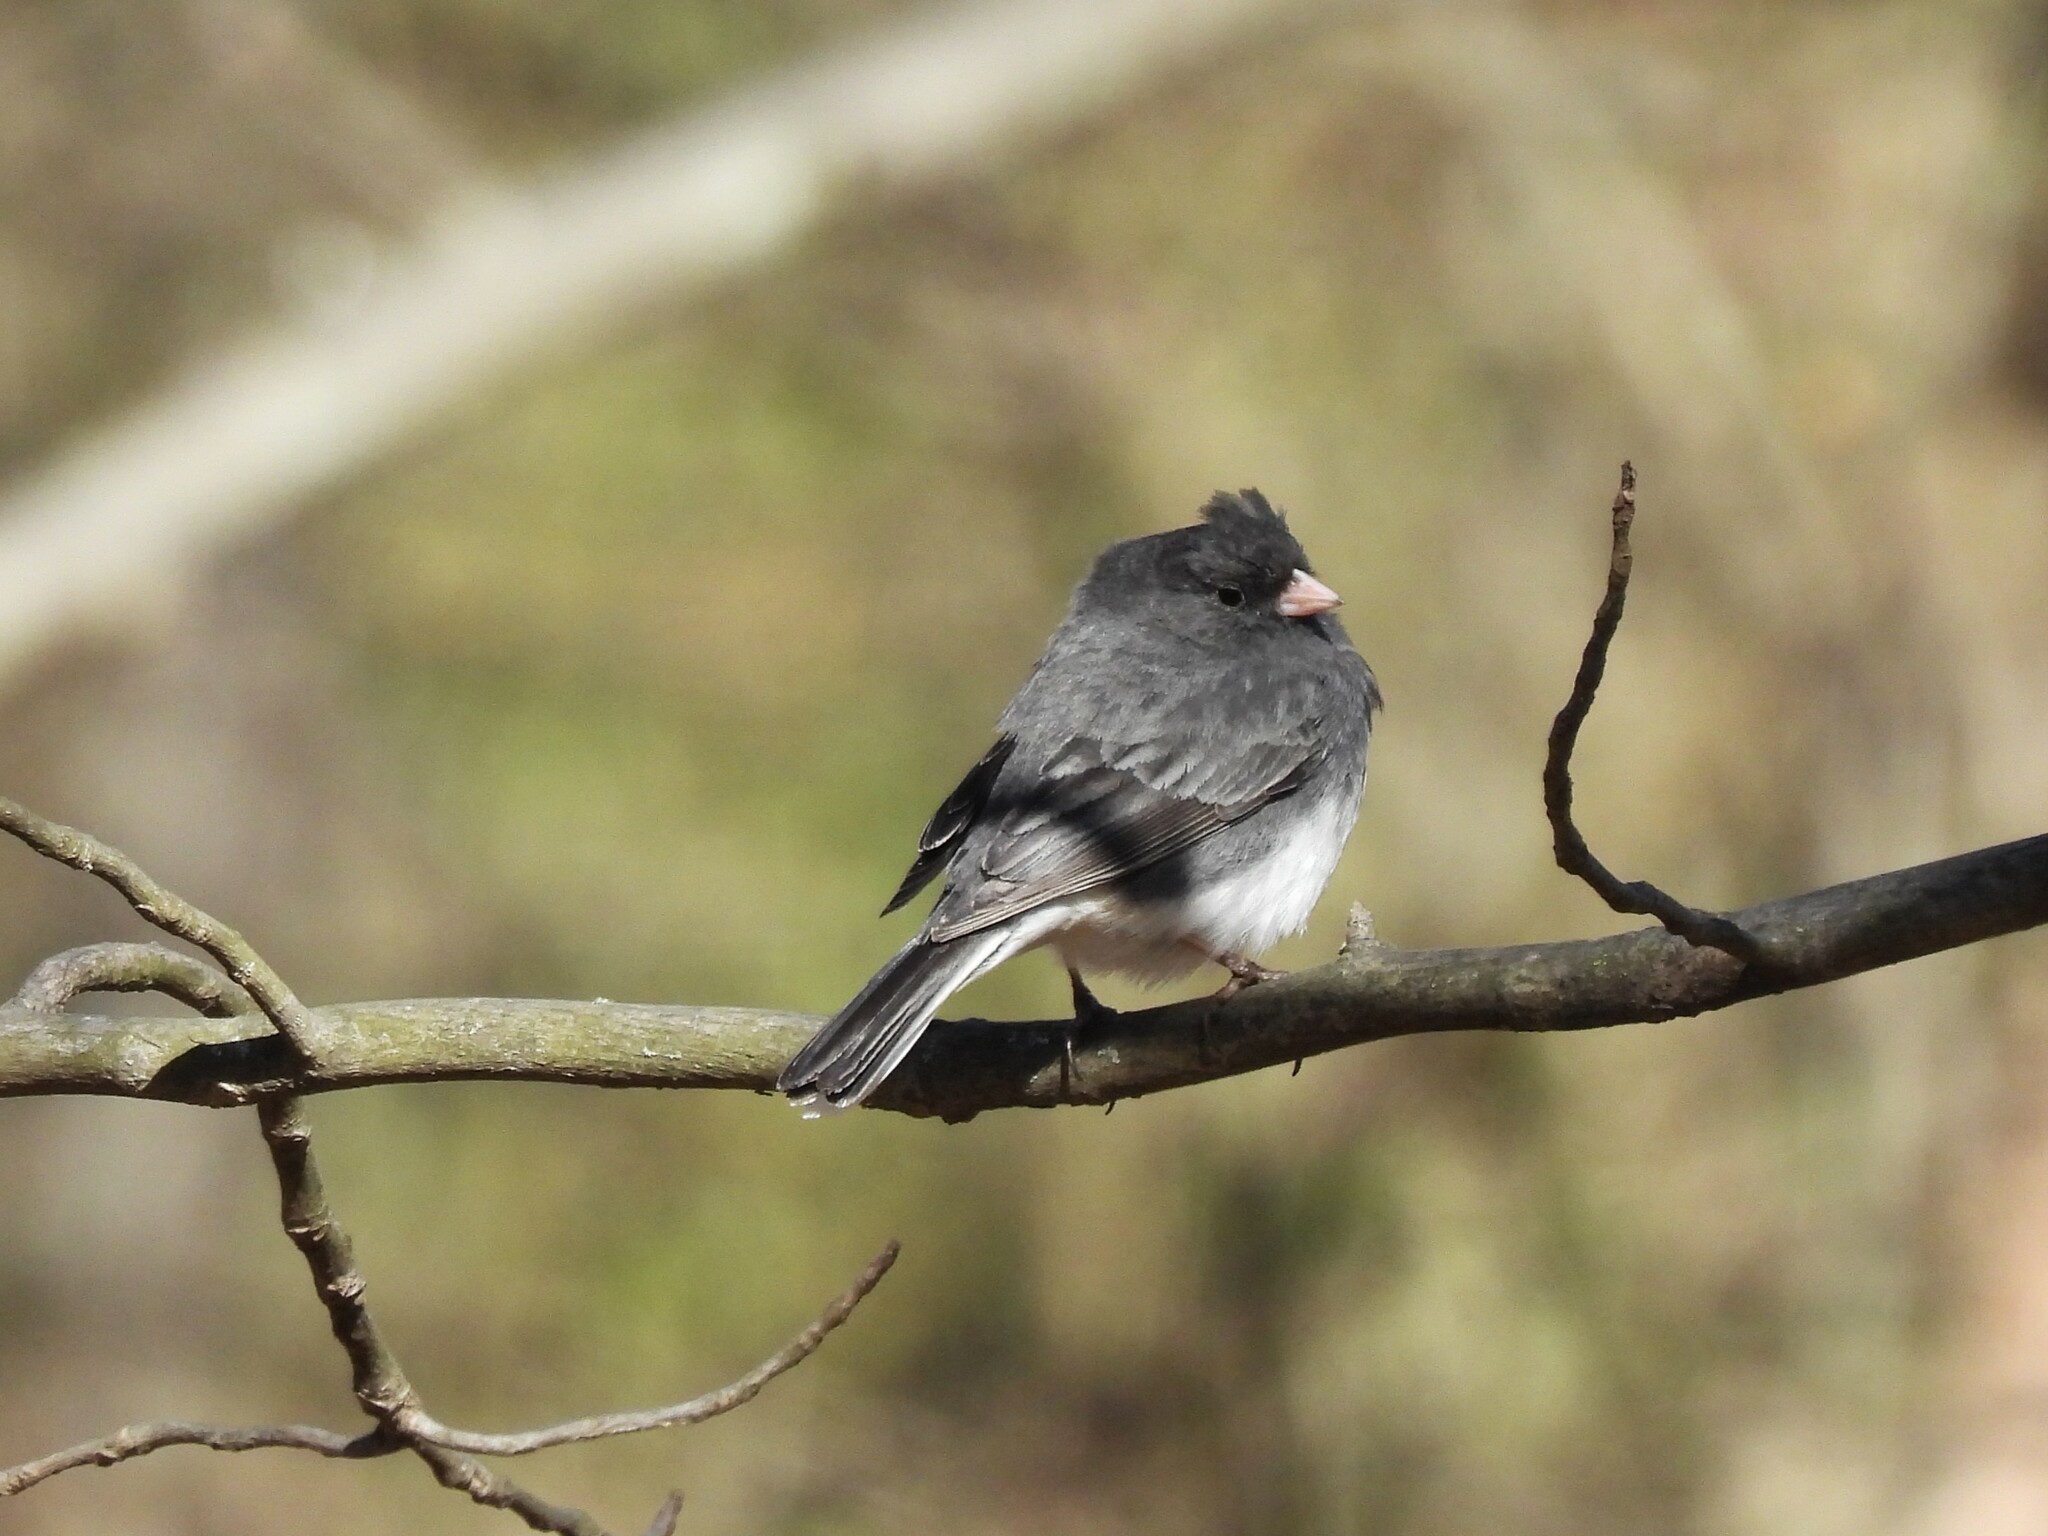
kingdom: Animalia
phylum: Chordata
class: Aves
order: Passeriformes
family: Passerellidae
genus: Junco
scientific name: Junco hyemalis
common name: Dark-eyed junco
